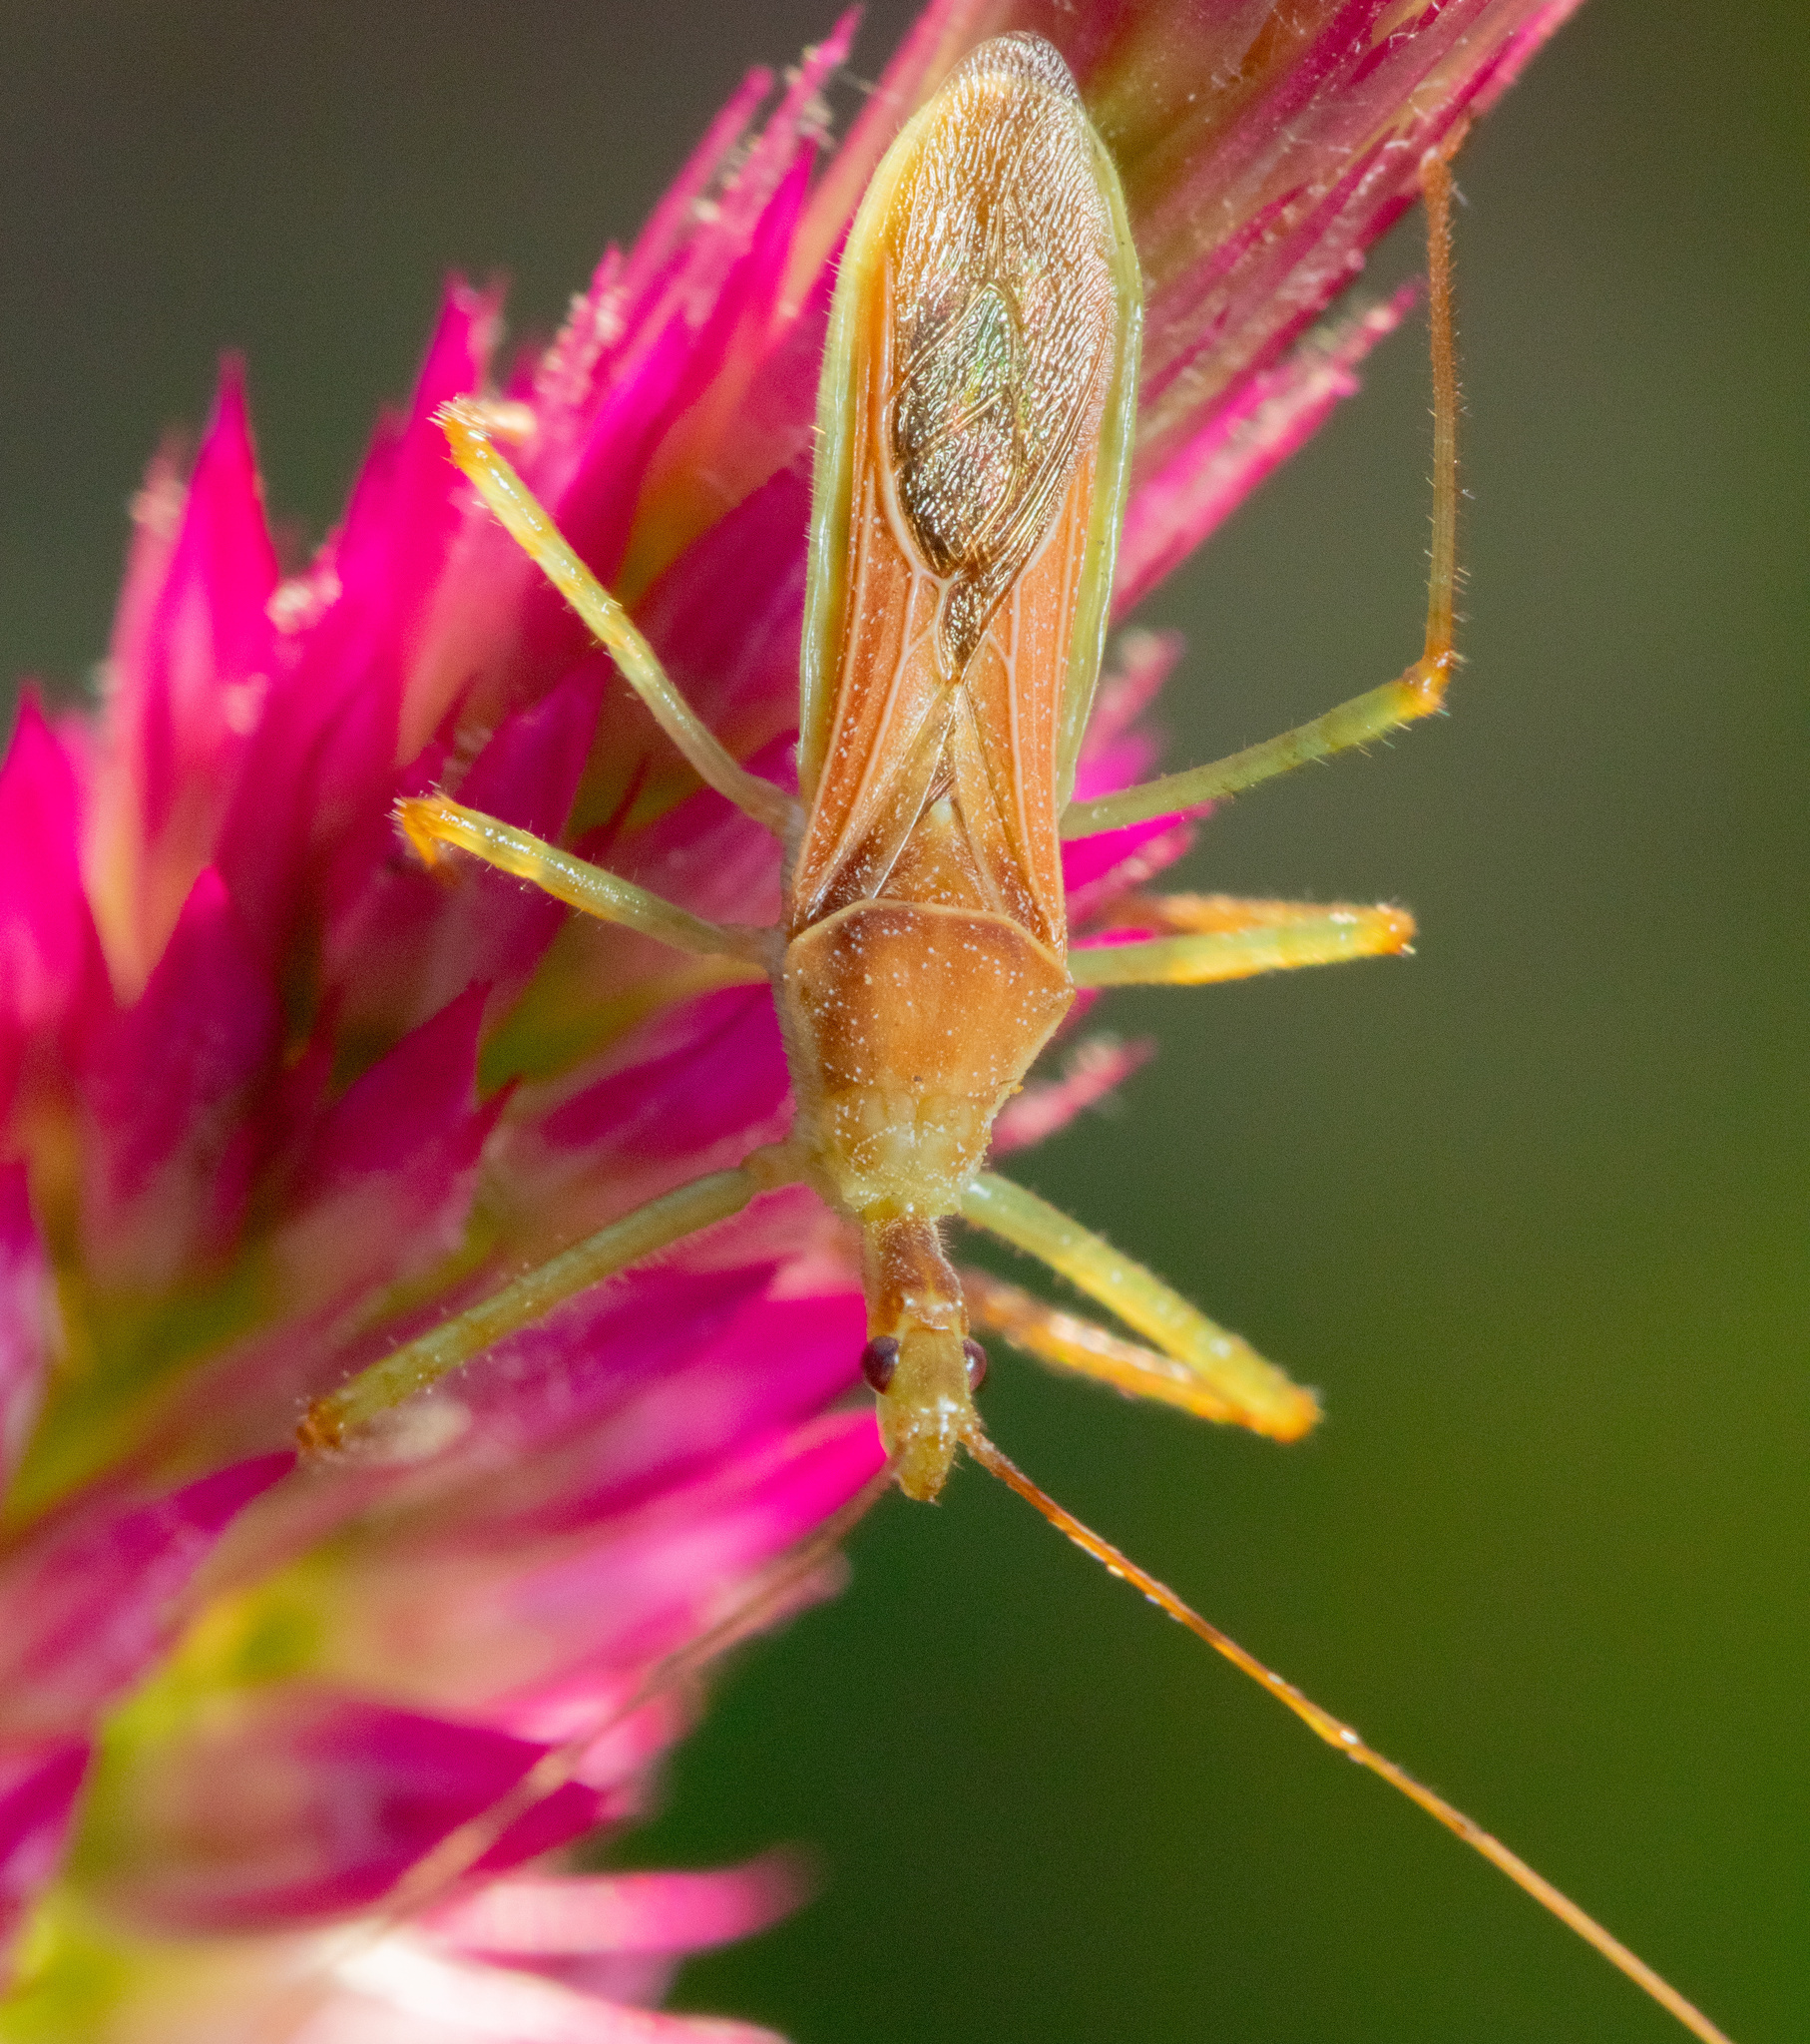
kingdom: Animalia
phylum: Arthropoda
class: Insecta
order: Hemiptera
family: Reduviidae
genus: Zelus
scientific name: Zelus renardii
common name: Assassin bug
